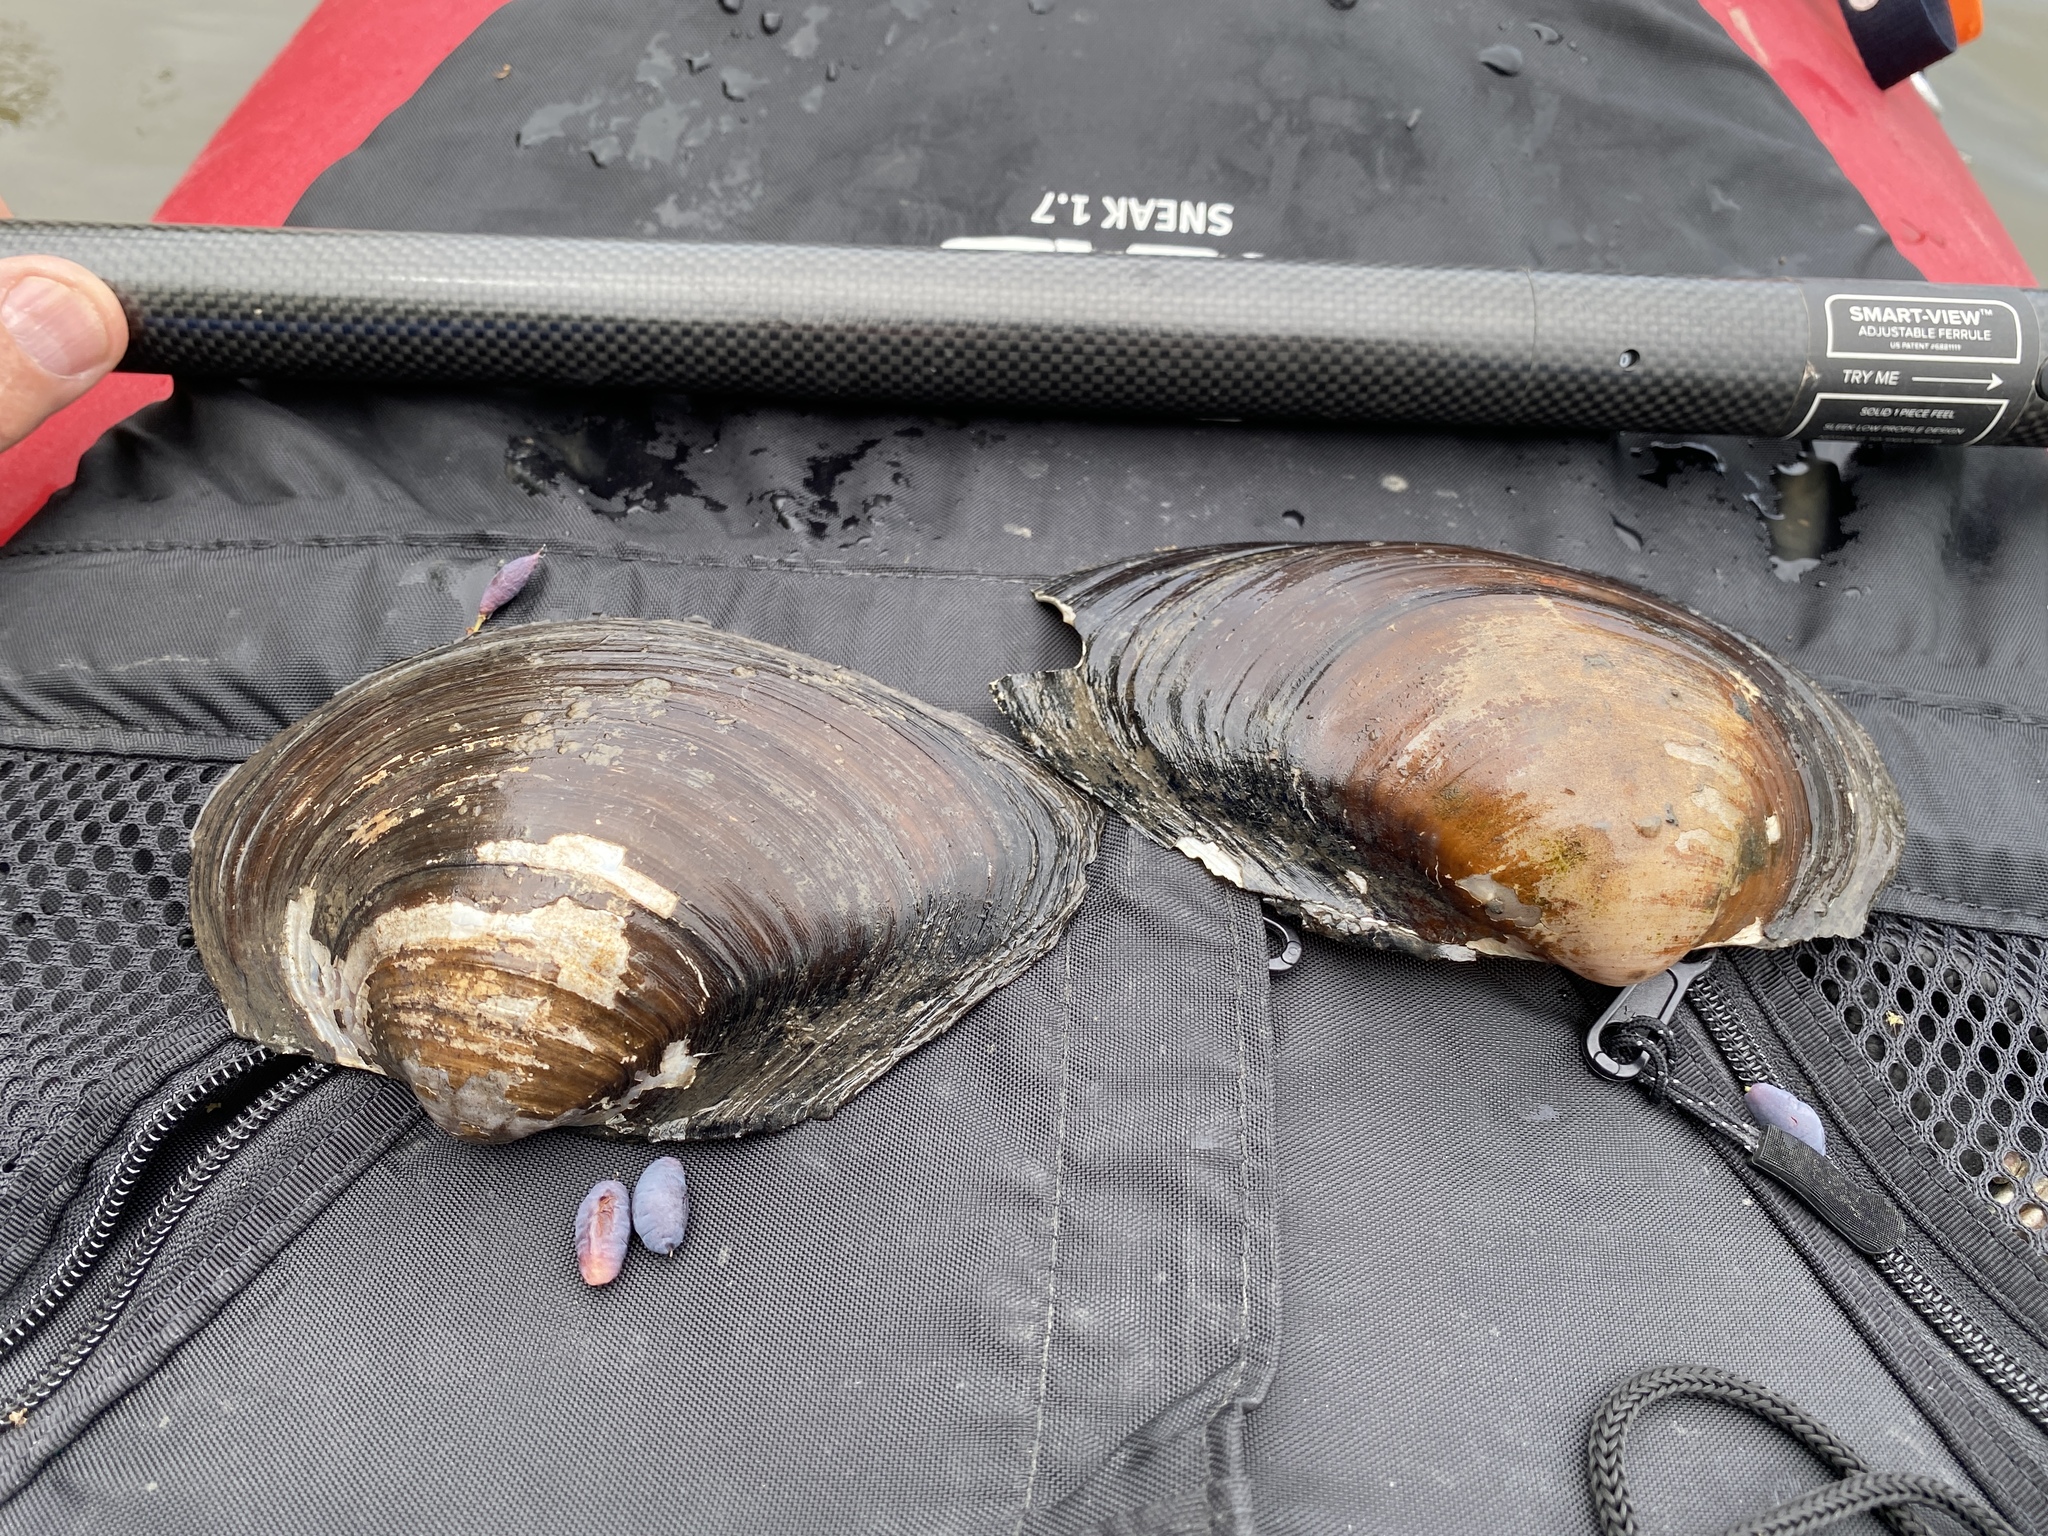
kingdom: Animalia
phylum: Mollusca
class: Bivalvia
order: Unionida
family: Unionidae
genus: Pyganodon
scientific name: Pyganodon grandis
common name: Giant floater
